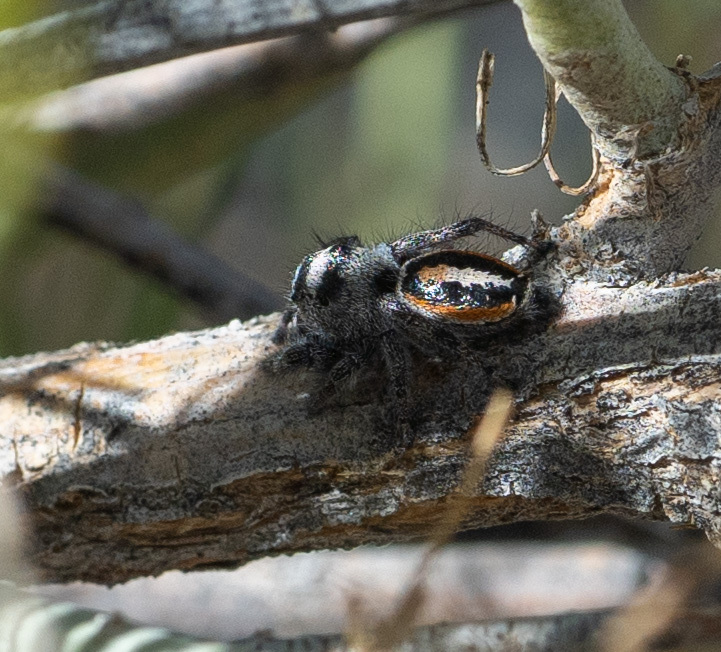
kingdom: Animalia
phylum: Arthropoda
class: Arachnida
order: Araneae
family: Salticidae
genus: Phidippus
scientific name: Phidippus californicus
